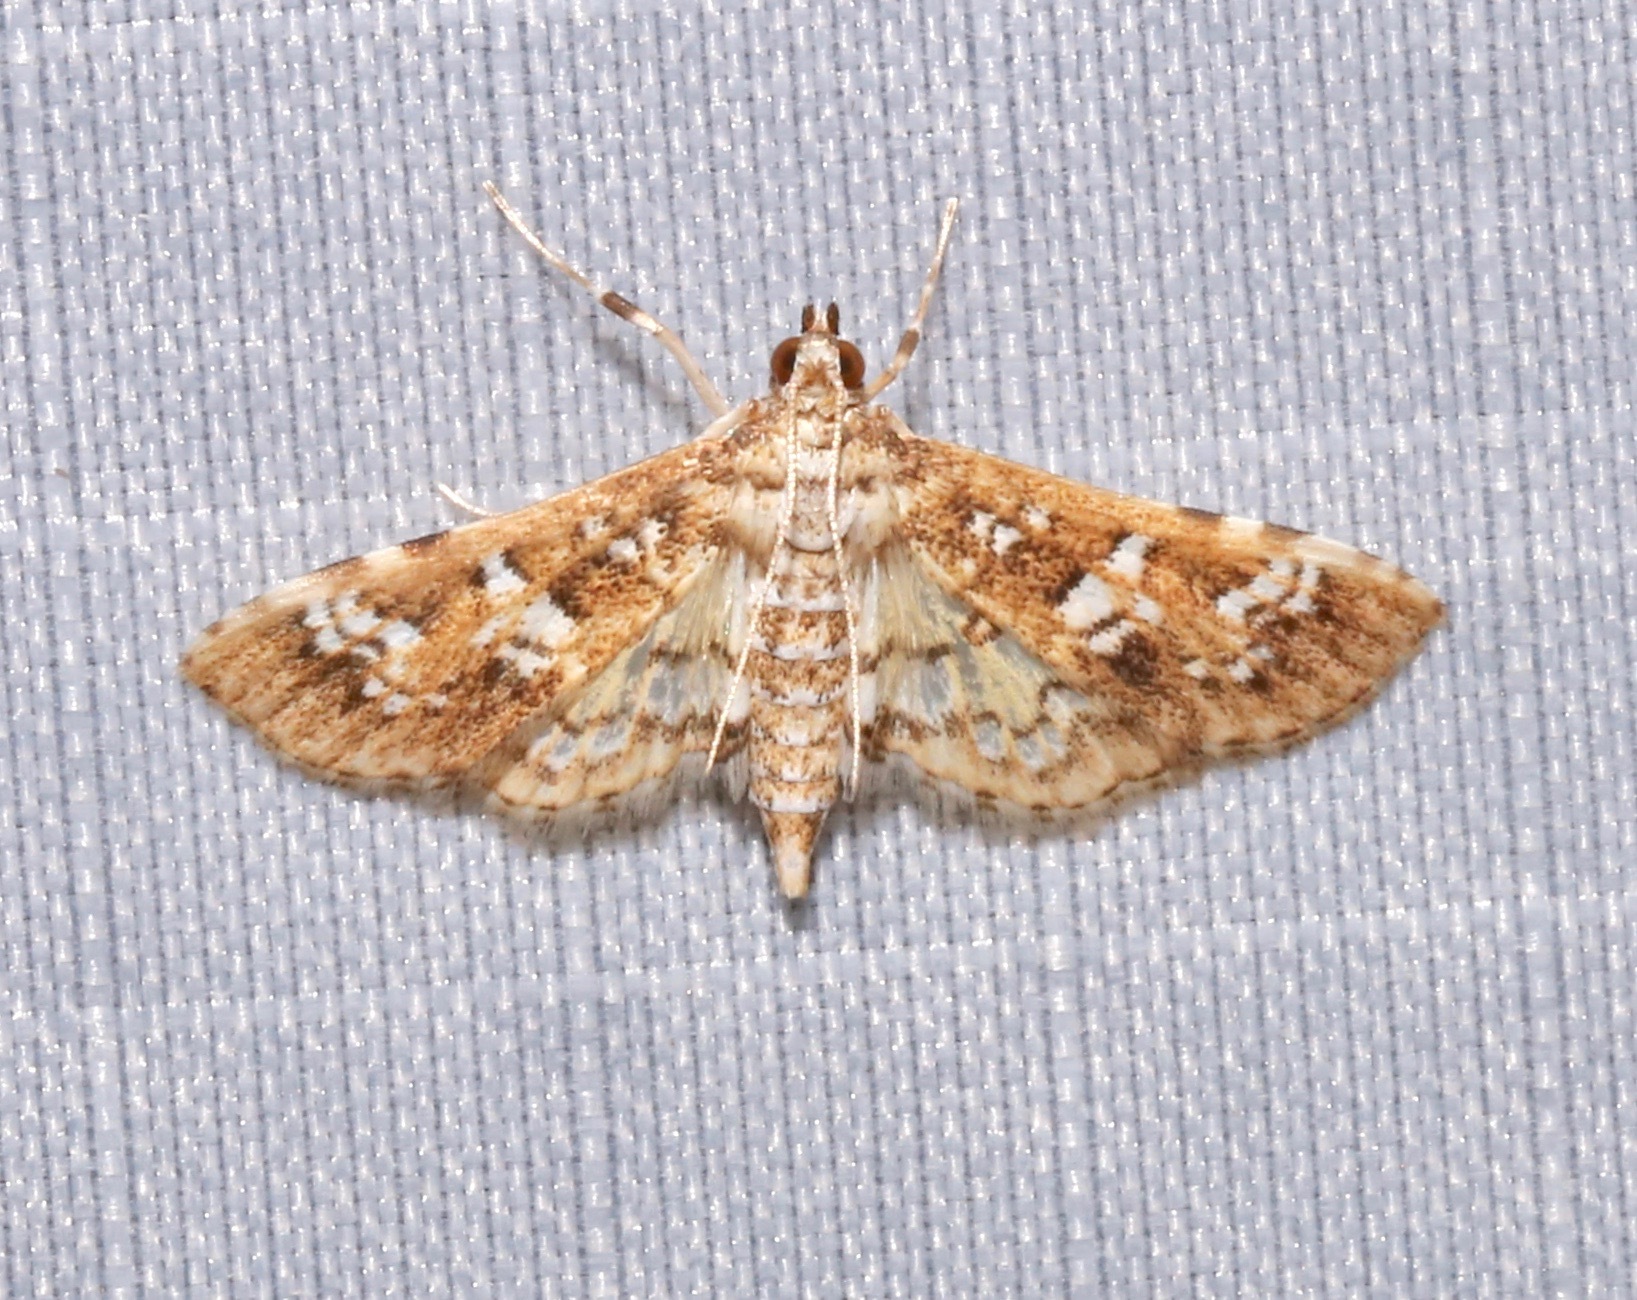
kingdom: Animalia
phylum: Arthropoda
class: Insecta
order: Lepidoptera
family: Crambidae
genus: Samea
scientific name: Samea multiplicalis
